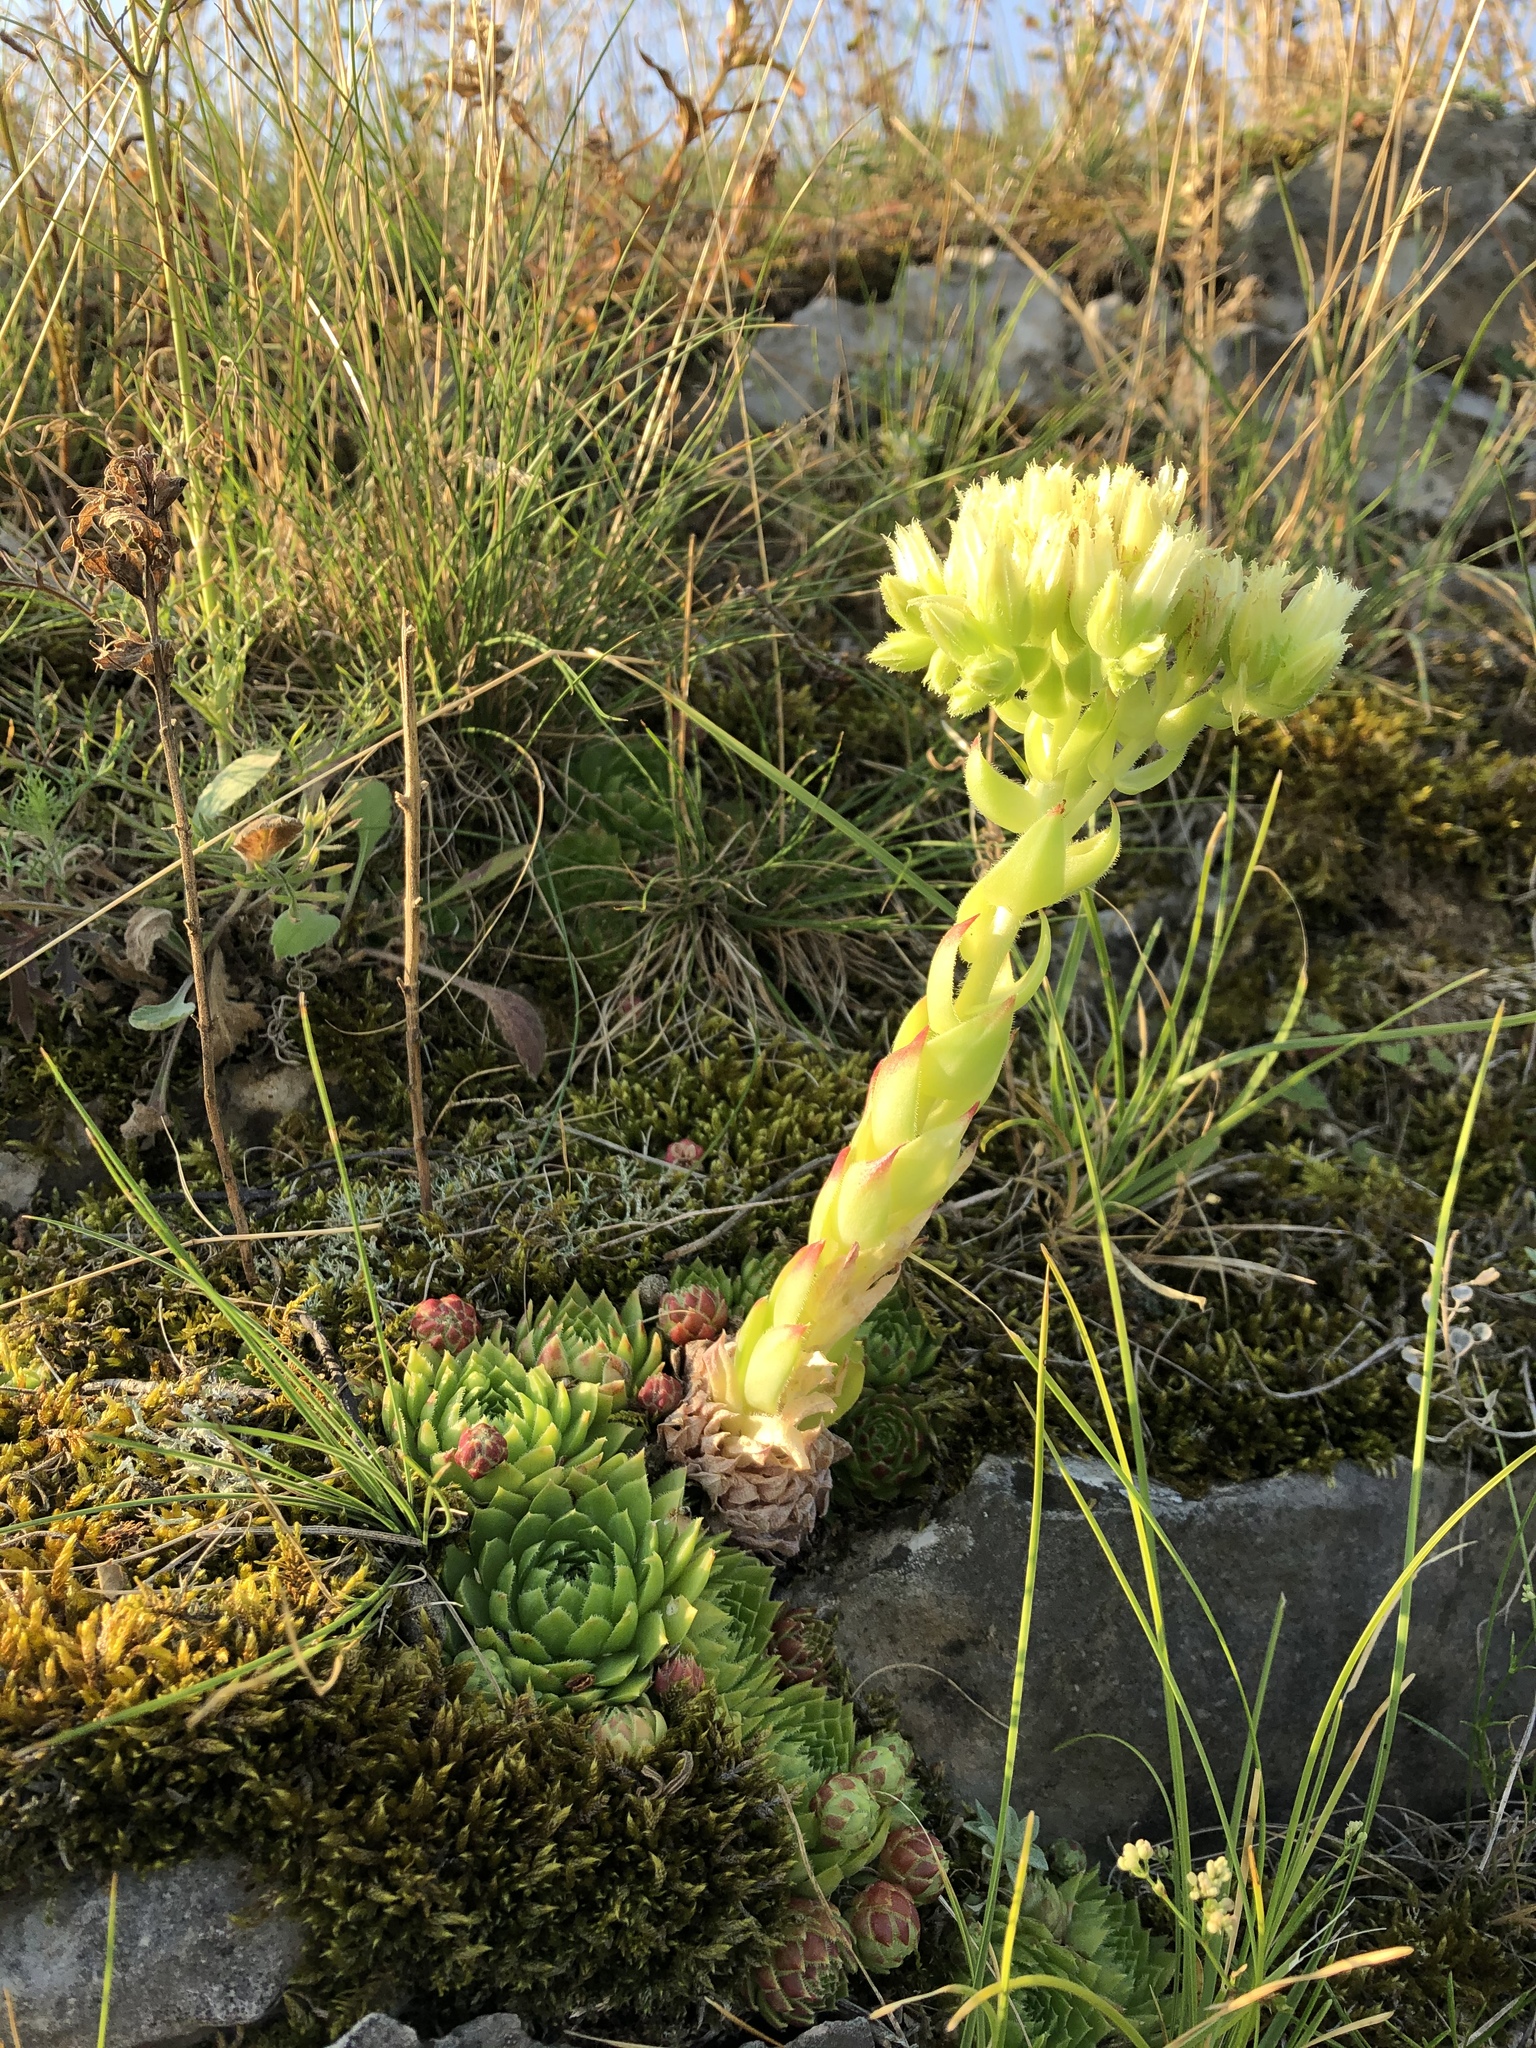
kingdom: Plantae
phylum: Tracheophyta
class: Magnoliopsida
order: Saxifragales
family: Crassulaceae
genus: Sempervivum
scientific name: Sempervivum globiferum
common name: Rolling hen-and-chicks
